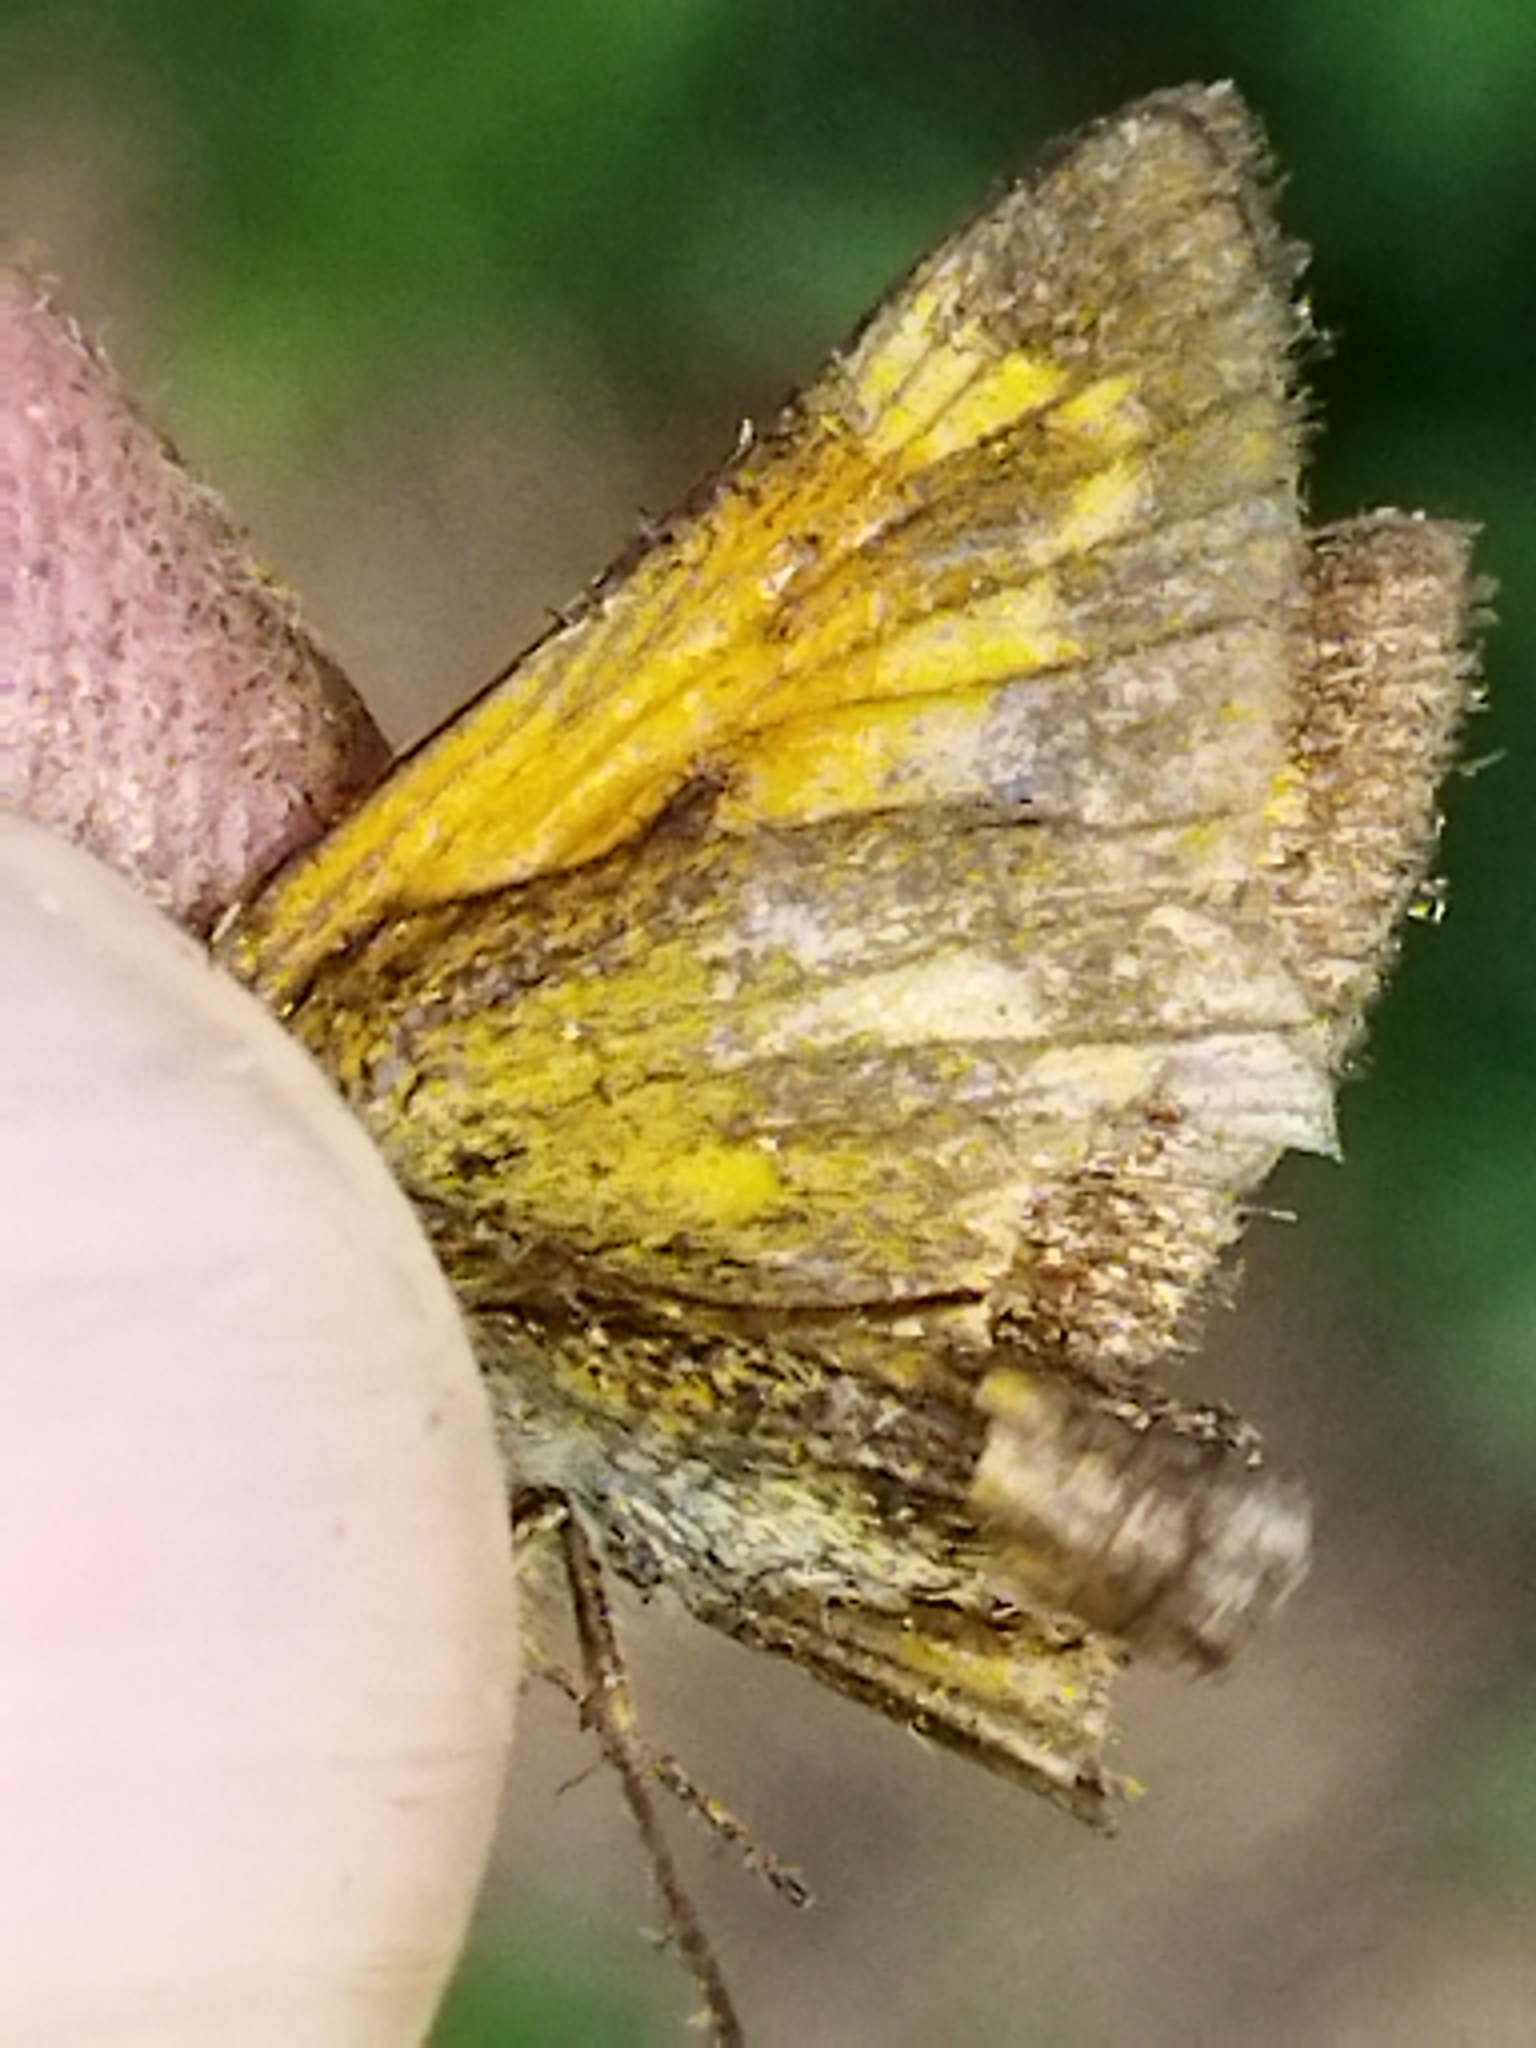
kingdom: Animalia
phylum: Arthropoda
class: Insecta
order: Lepidoptera
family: Hesperiidae
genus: Ochlodes
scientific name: Ochlodes venata
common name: Large skipper
